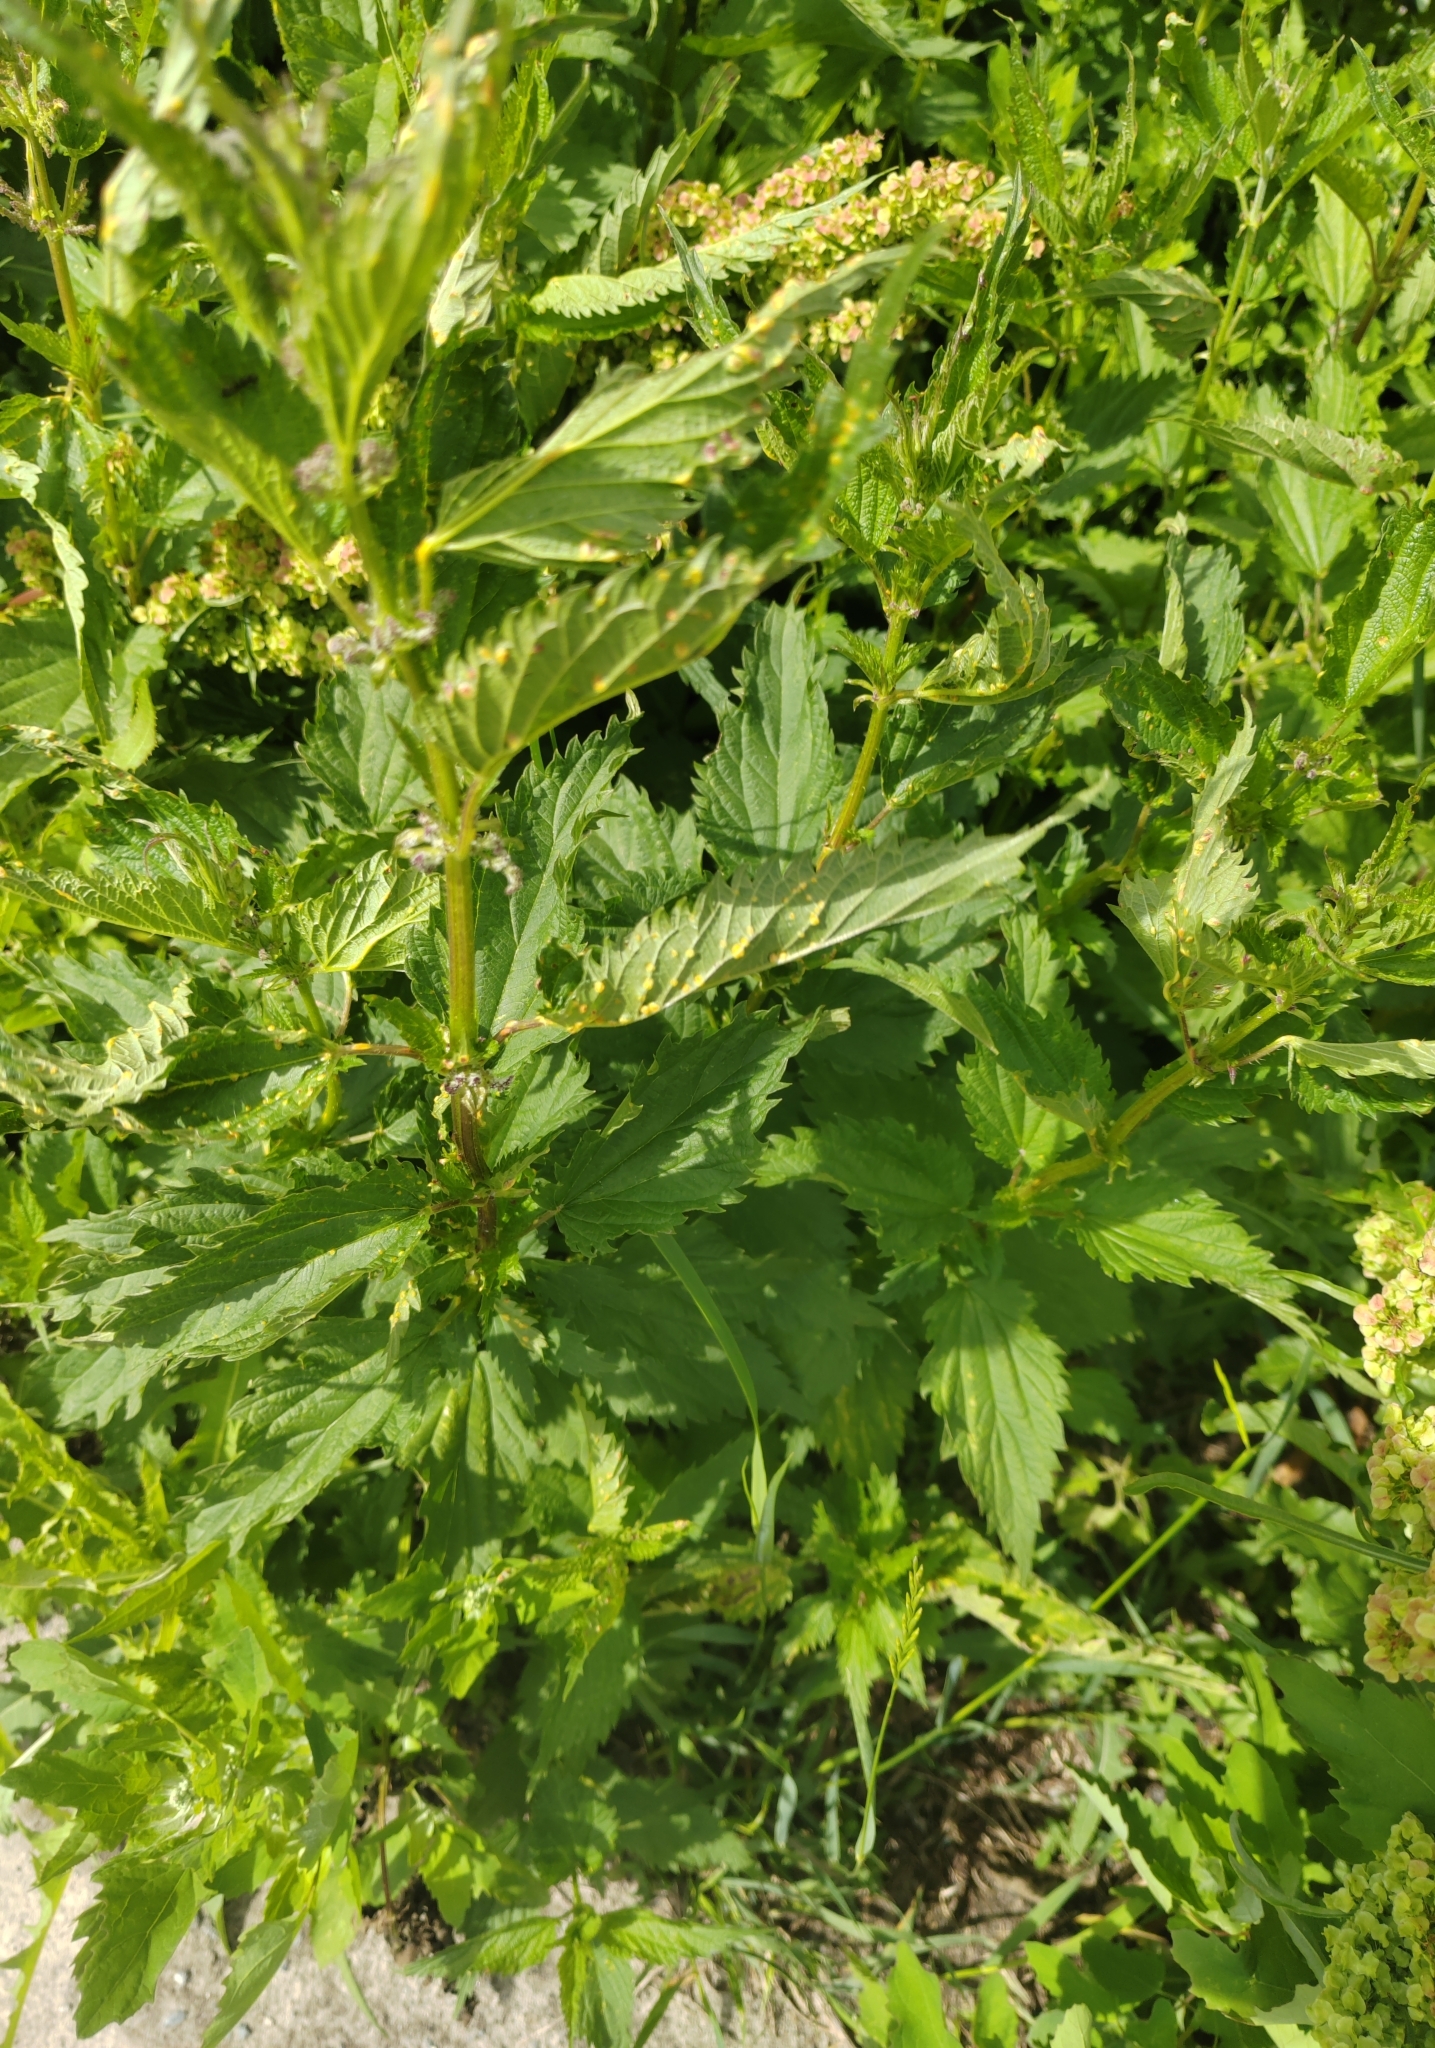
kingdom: Plantae
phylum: Tracheophyta
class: Magnoliopsida
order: Rosales
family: Urticaceae
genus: Urtica
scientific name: Urtica dioica
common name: Common nettle
